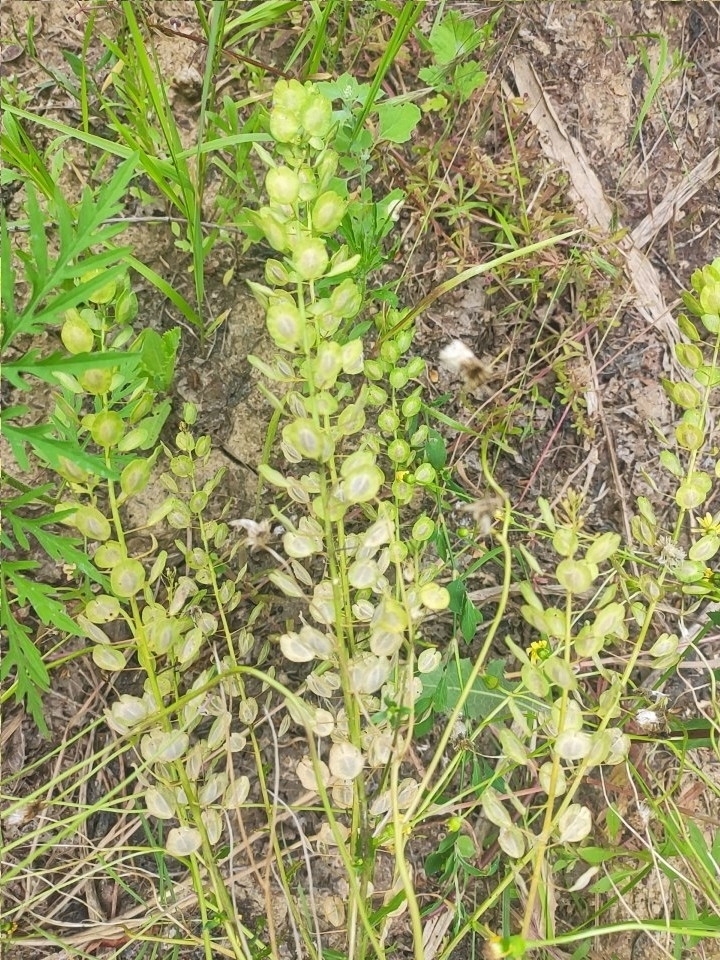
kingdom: Plantae
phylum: Tracheophyta
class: Magnoliopsida
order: Brassicales
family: Brassicaceae
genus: Thlaspi
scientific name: Thlaspi arvense
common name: Field pennycress
